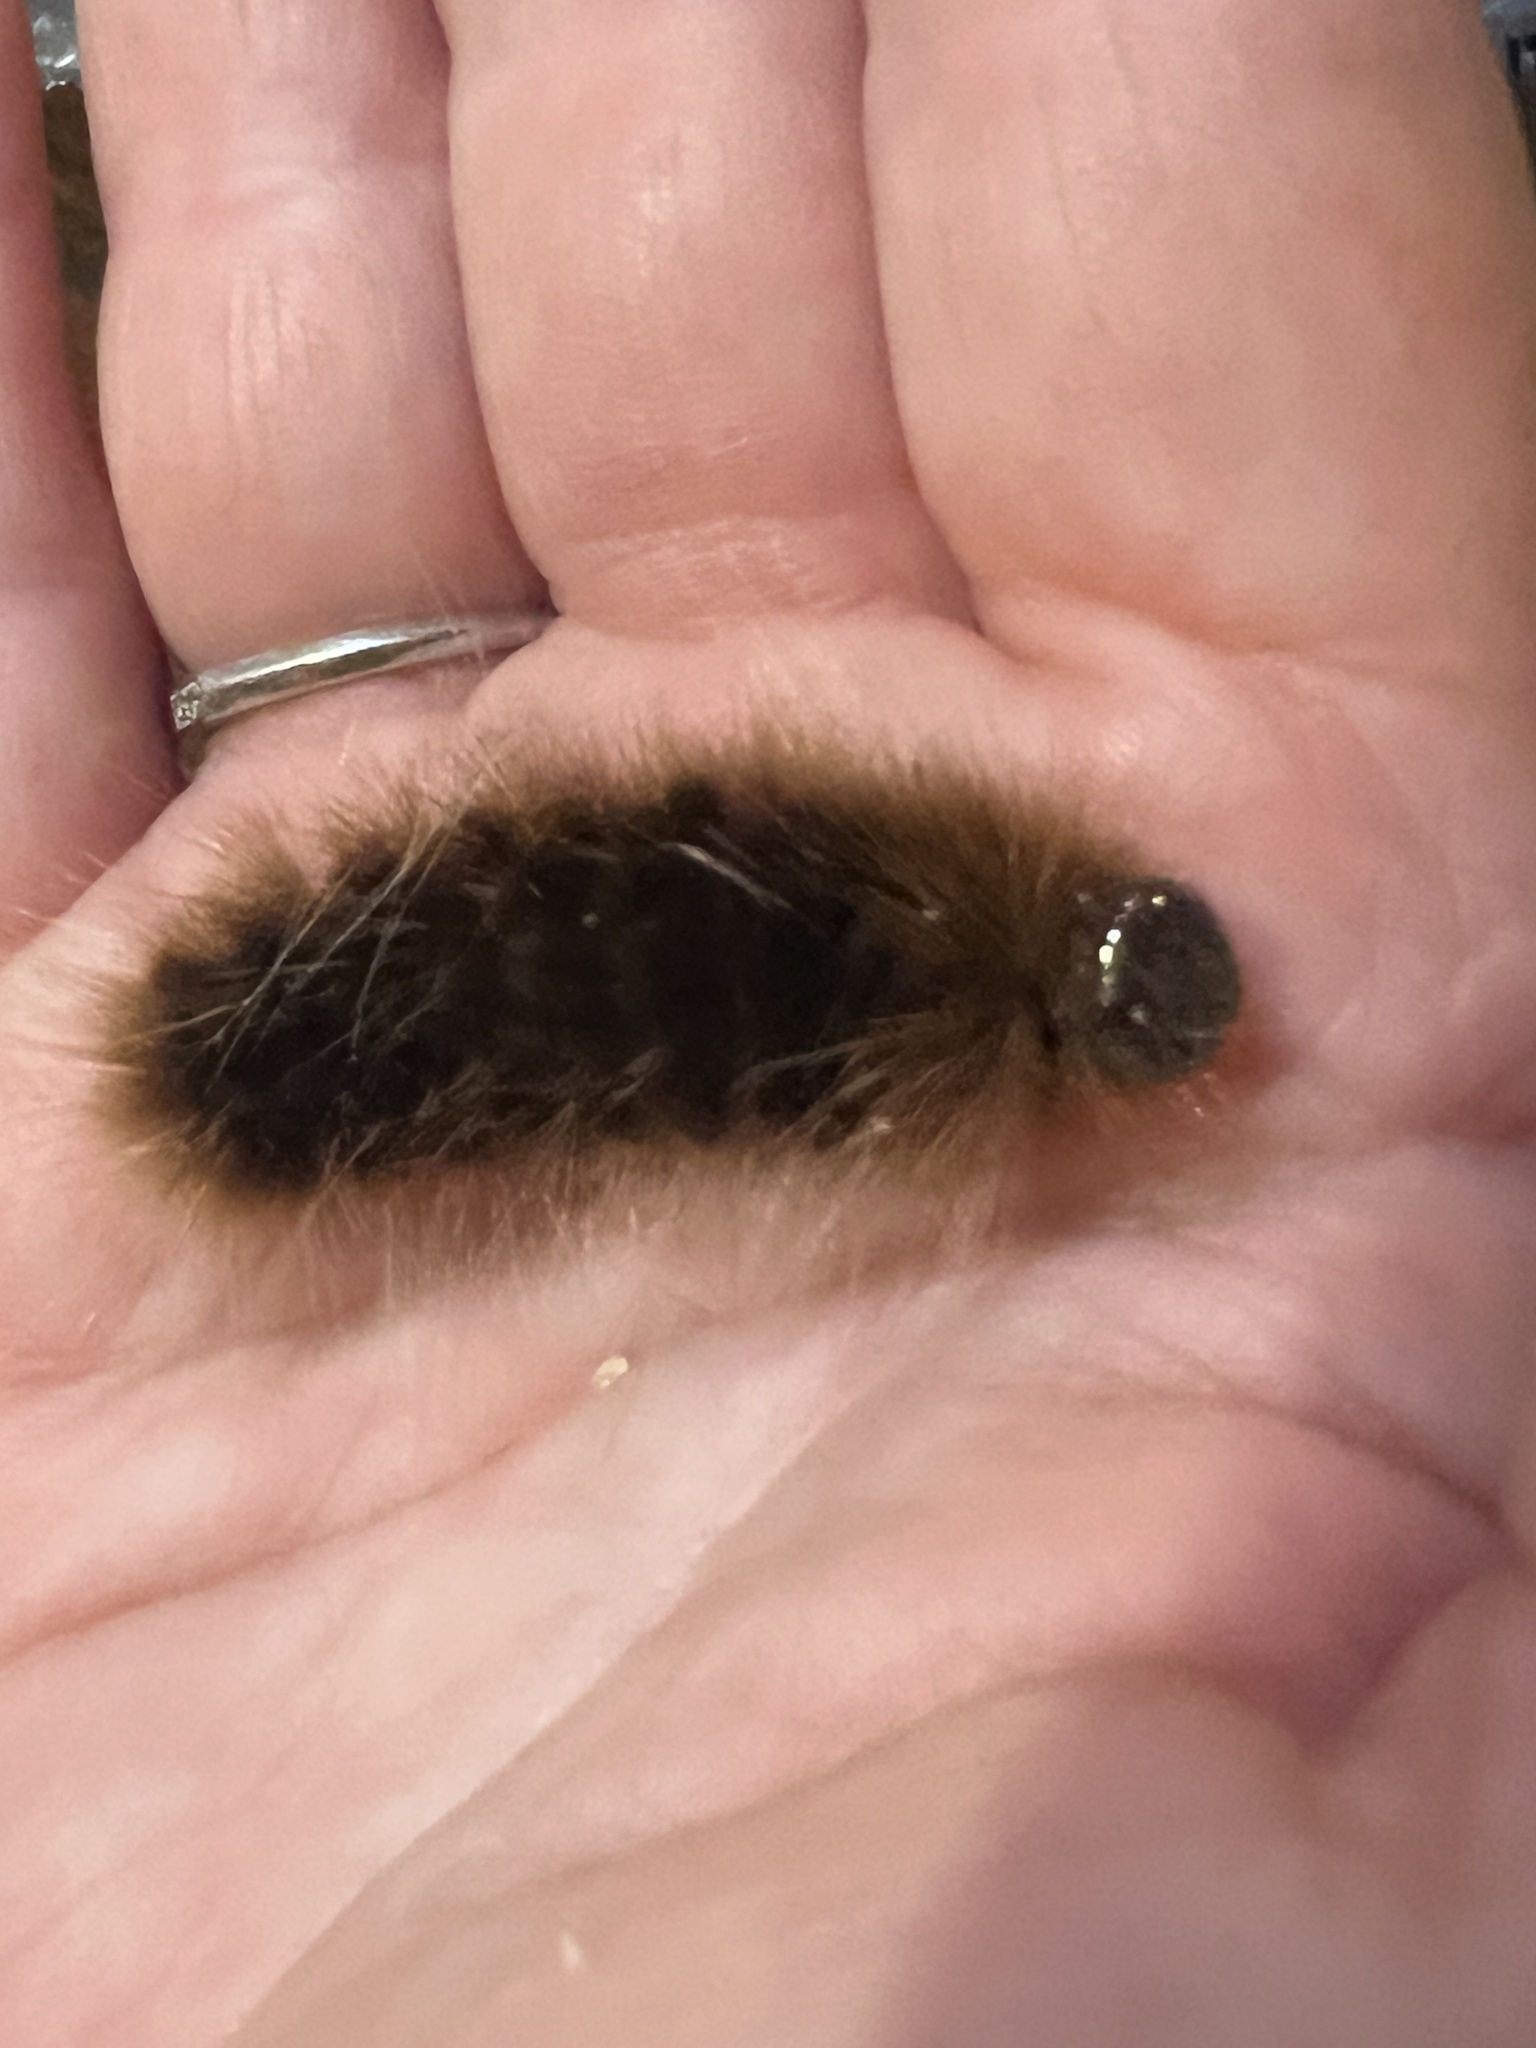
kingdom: Animalia
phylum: Arthropoda
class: Insecta
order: Lepidoptera
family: Erebidae
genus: Hemihyalea
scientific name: Hemihyalea edwardsii
